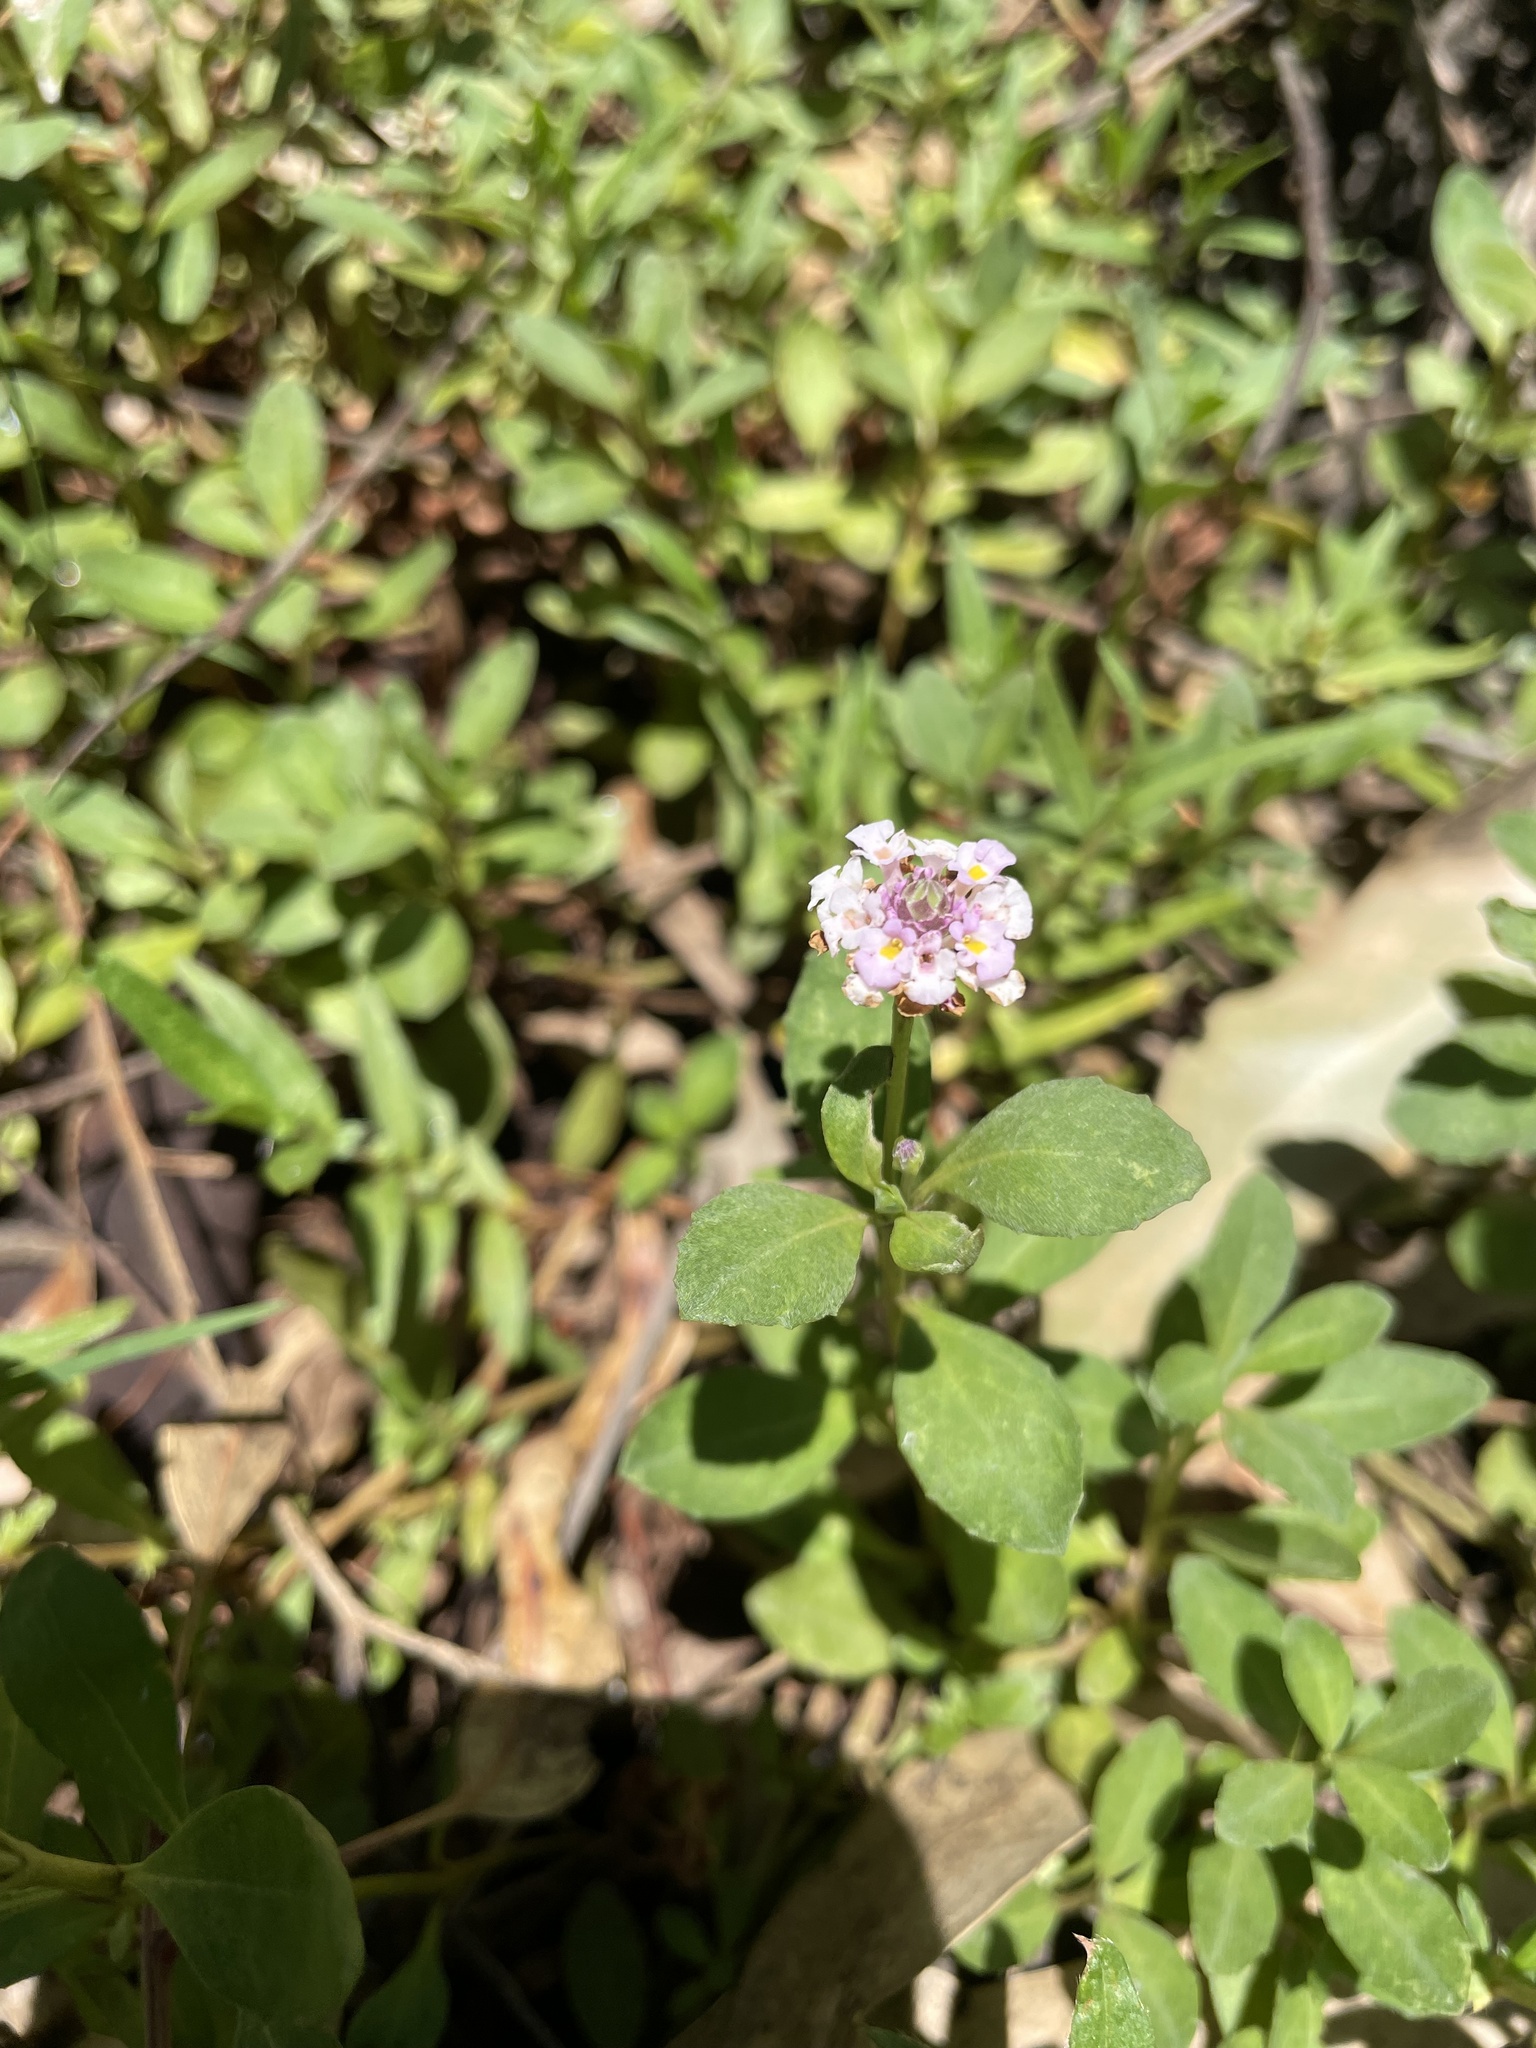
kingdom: Plantae
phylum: Tracheophyta
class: Magnoliopsida
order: Lamiales
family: Verbenaceae
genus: Phyla
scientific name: Phyla nodiflora
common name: Frogfruit
